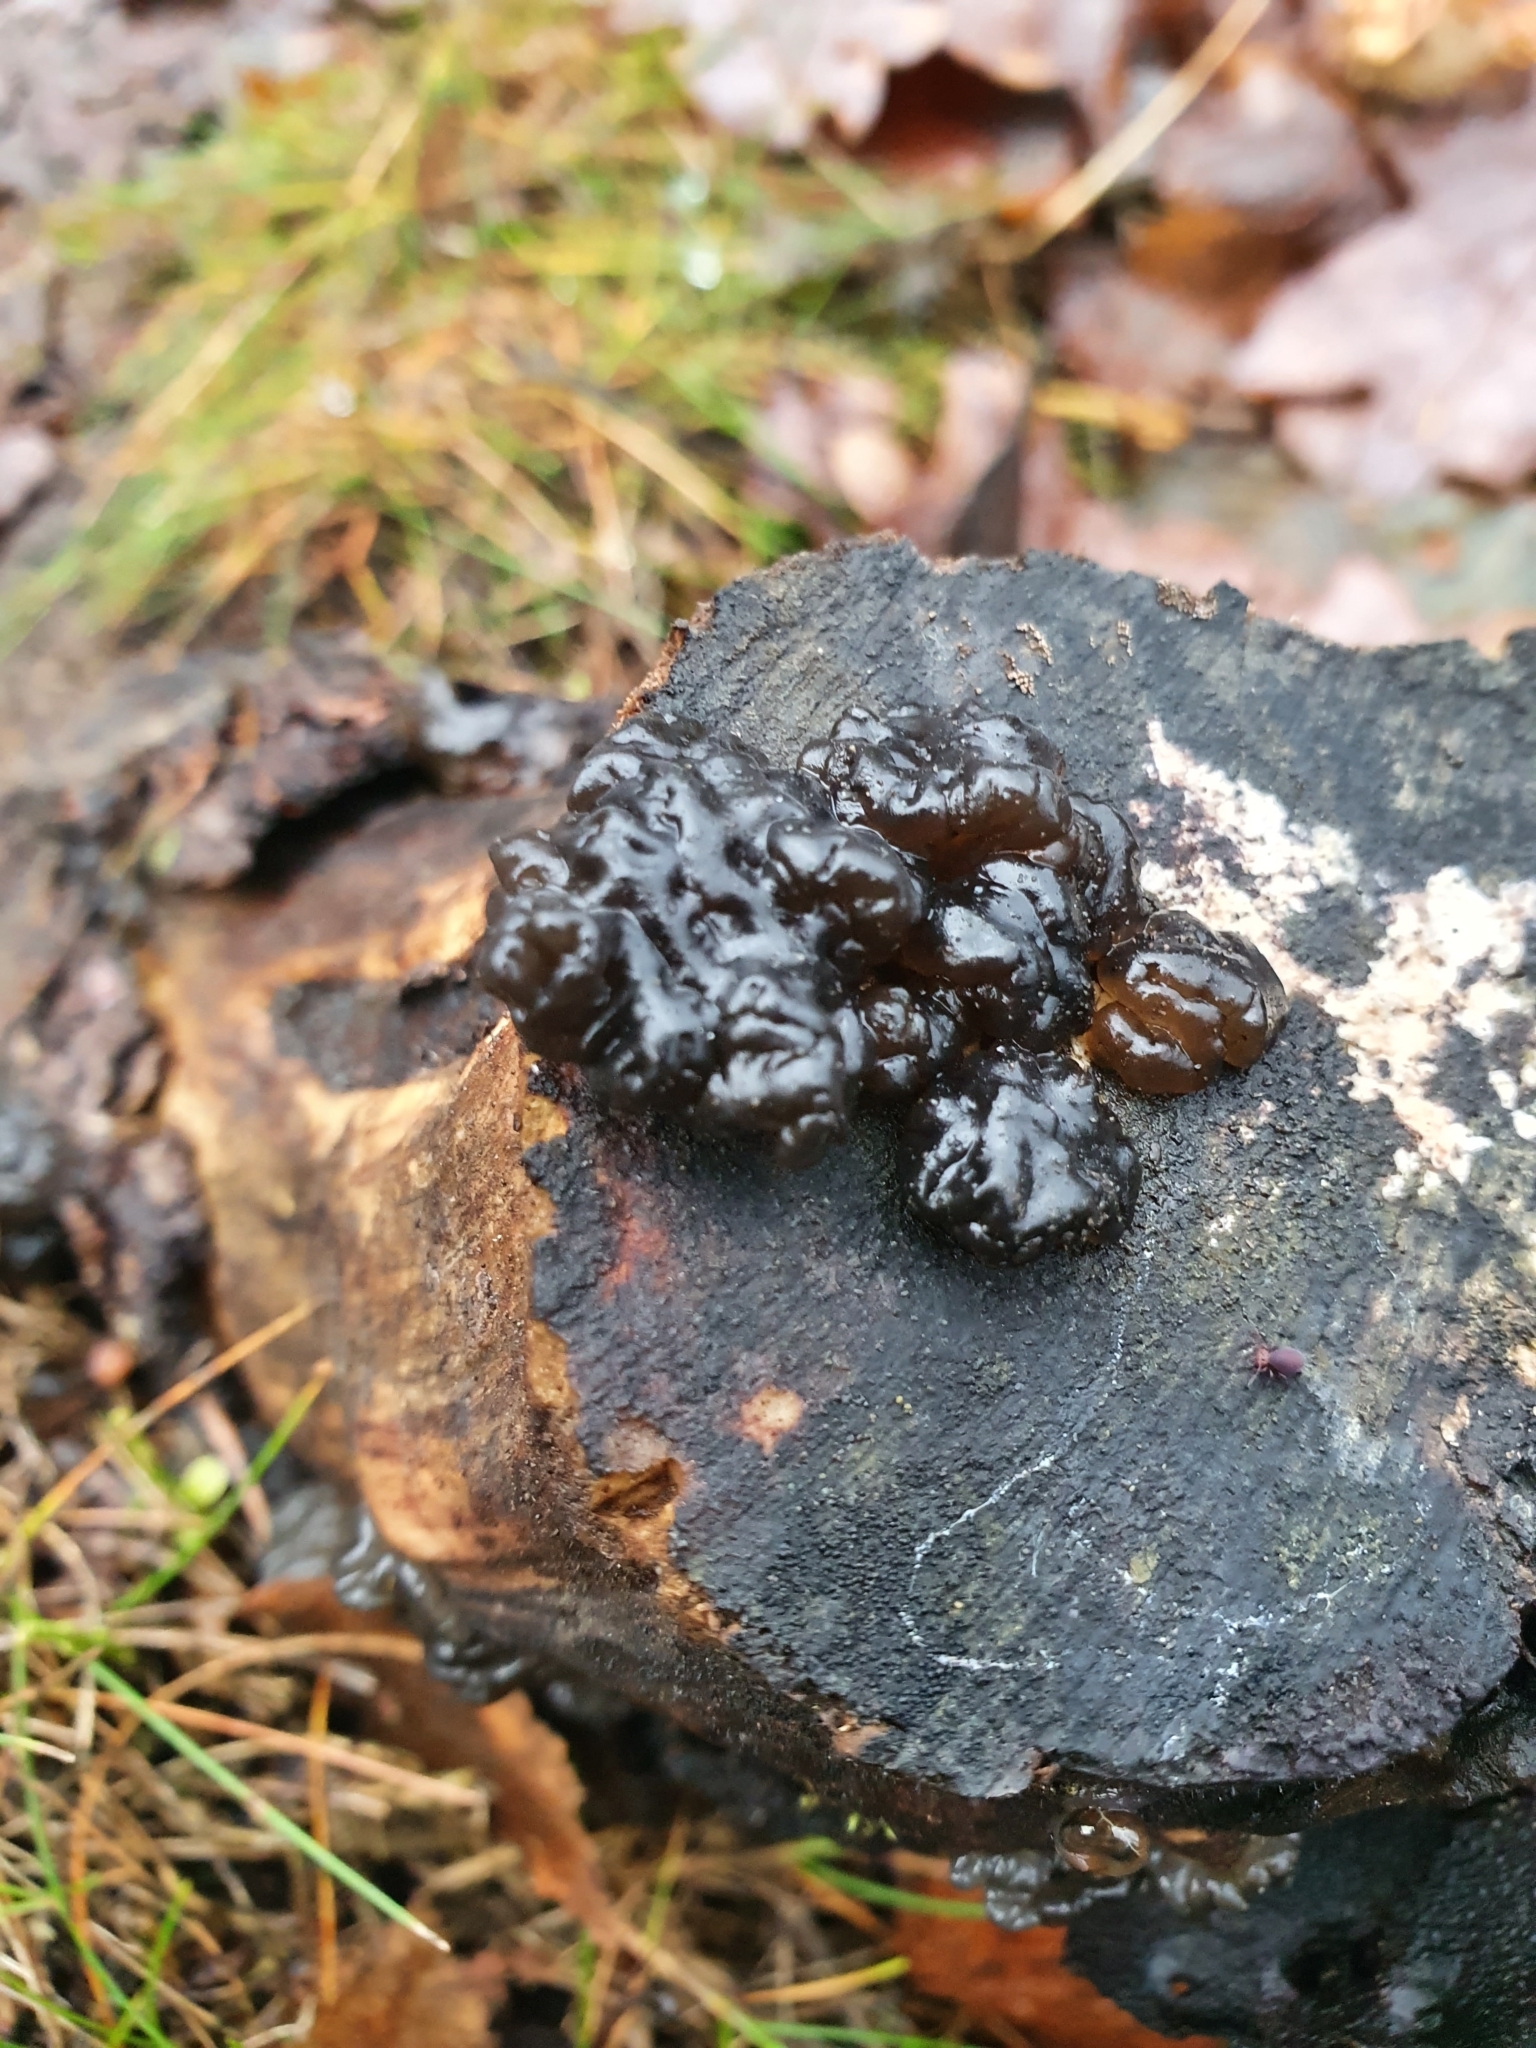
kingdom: Fungi
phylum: Basidiomycota
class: Agaricomycetes
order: Auriculariales
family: Auriculariaceae
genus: Exidia
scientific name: Exidia glandulosa
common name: Witches' butter
